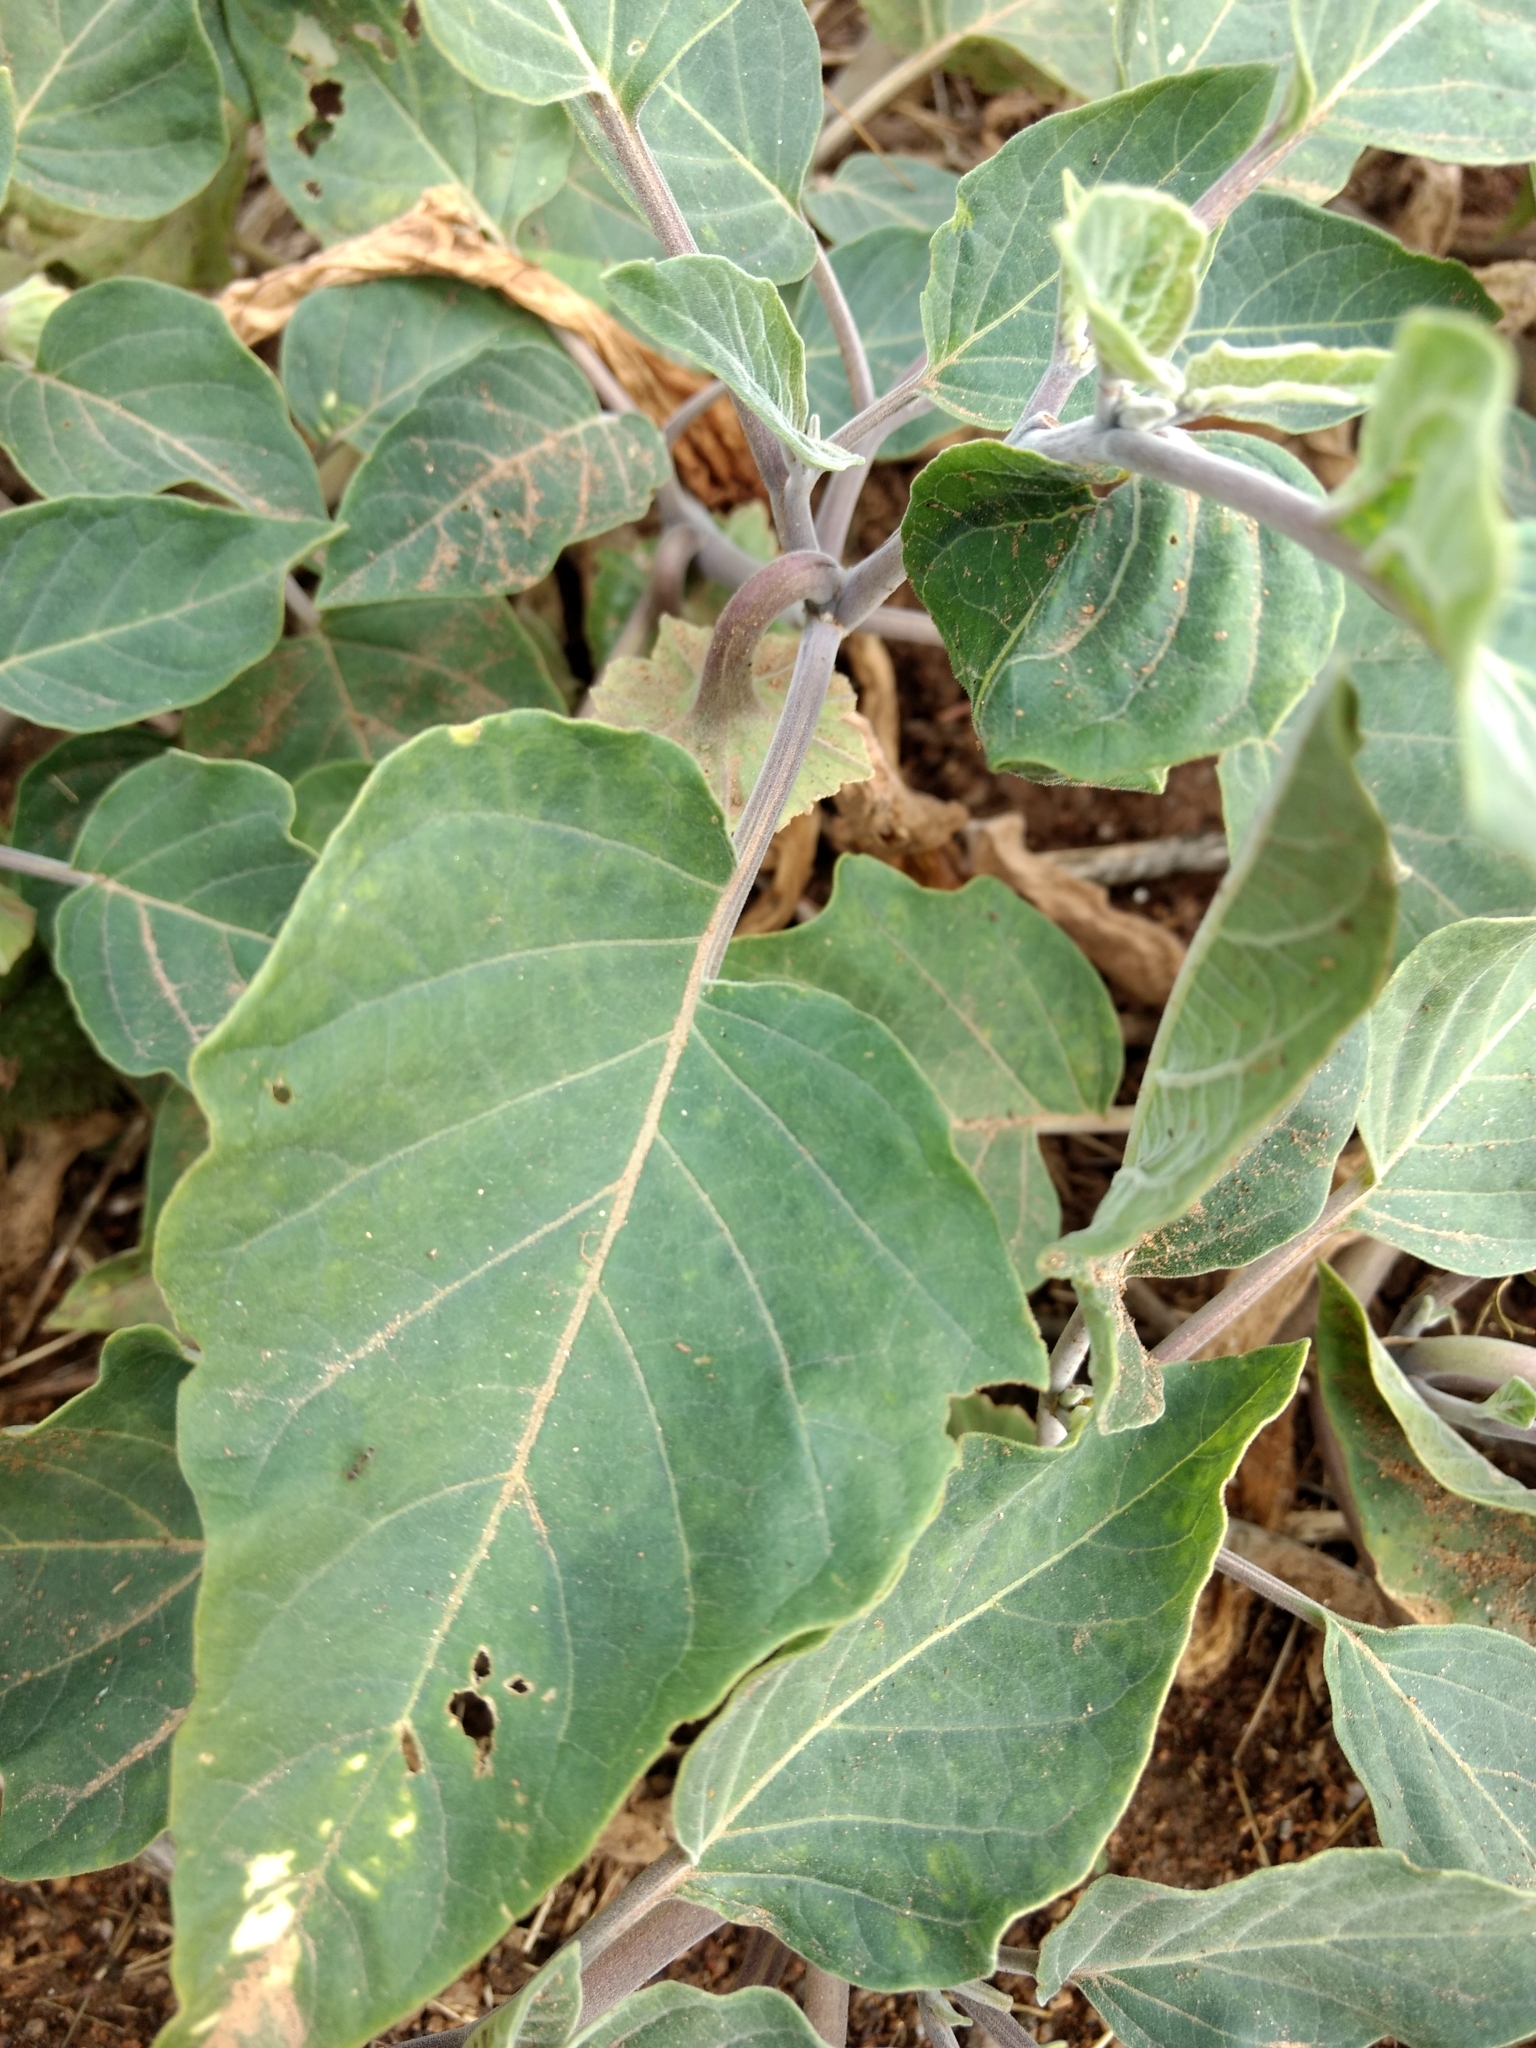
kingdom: Plantae
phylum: Tracheophyta
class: Magnoliopsida
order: Solanales
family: Solanaceae
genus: Datura
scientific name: Datura wrightii
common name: Sacred thorn-apple
